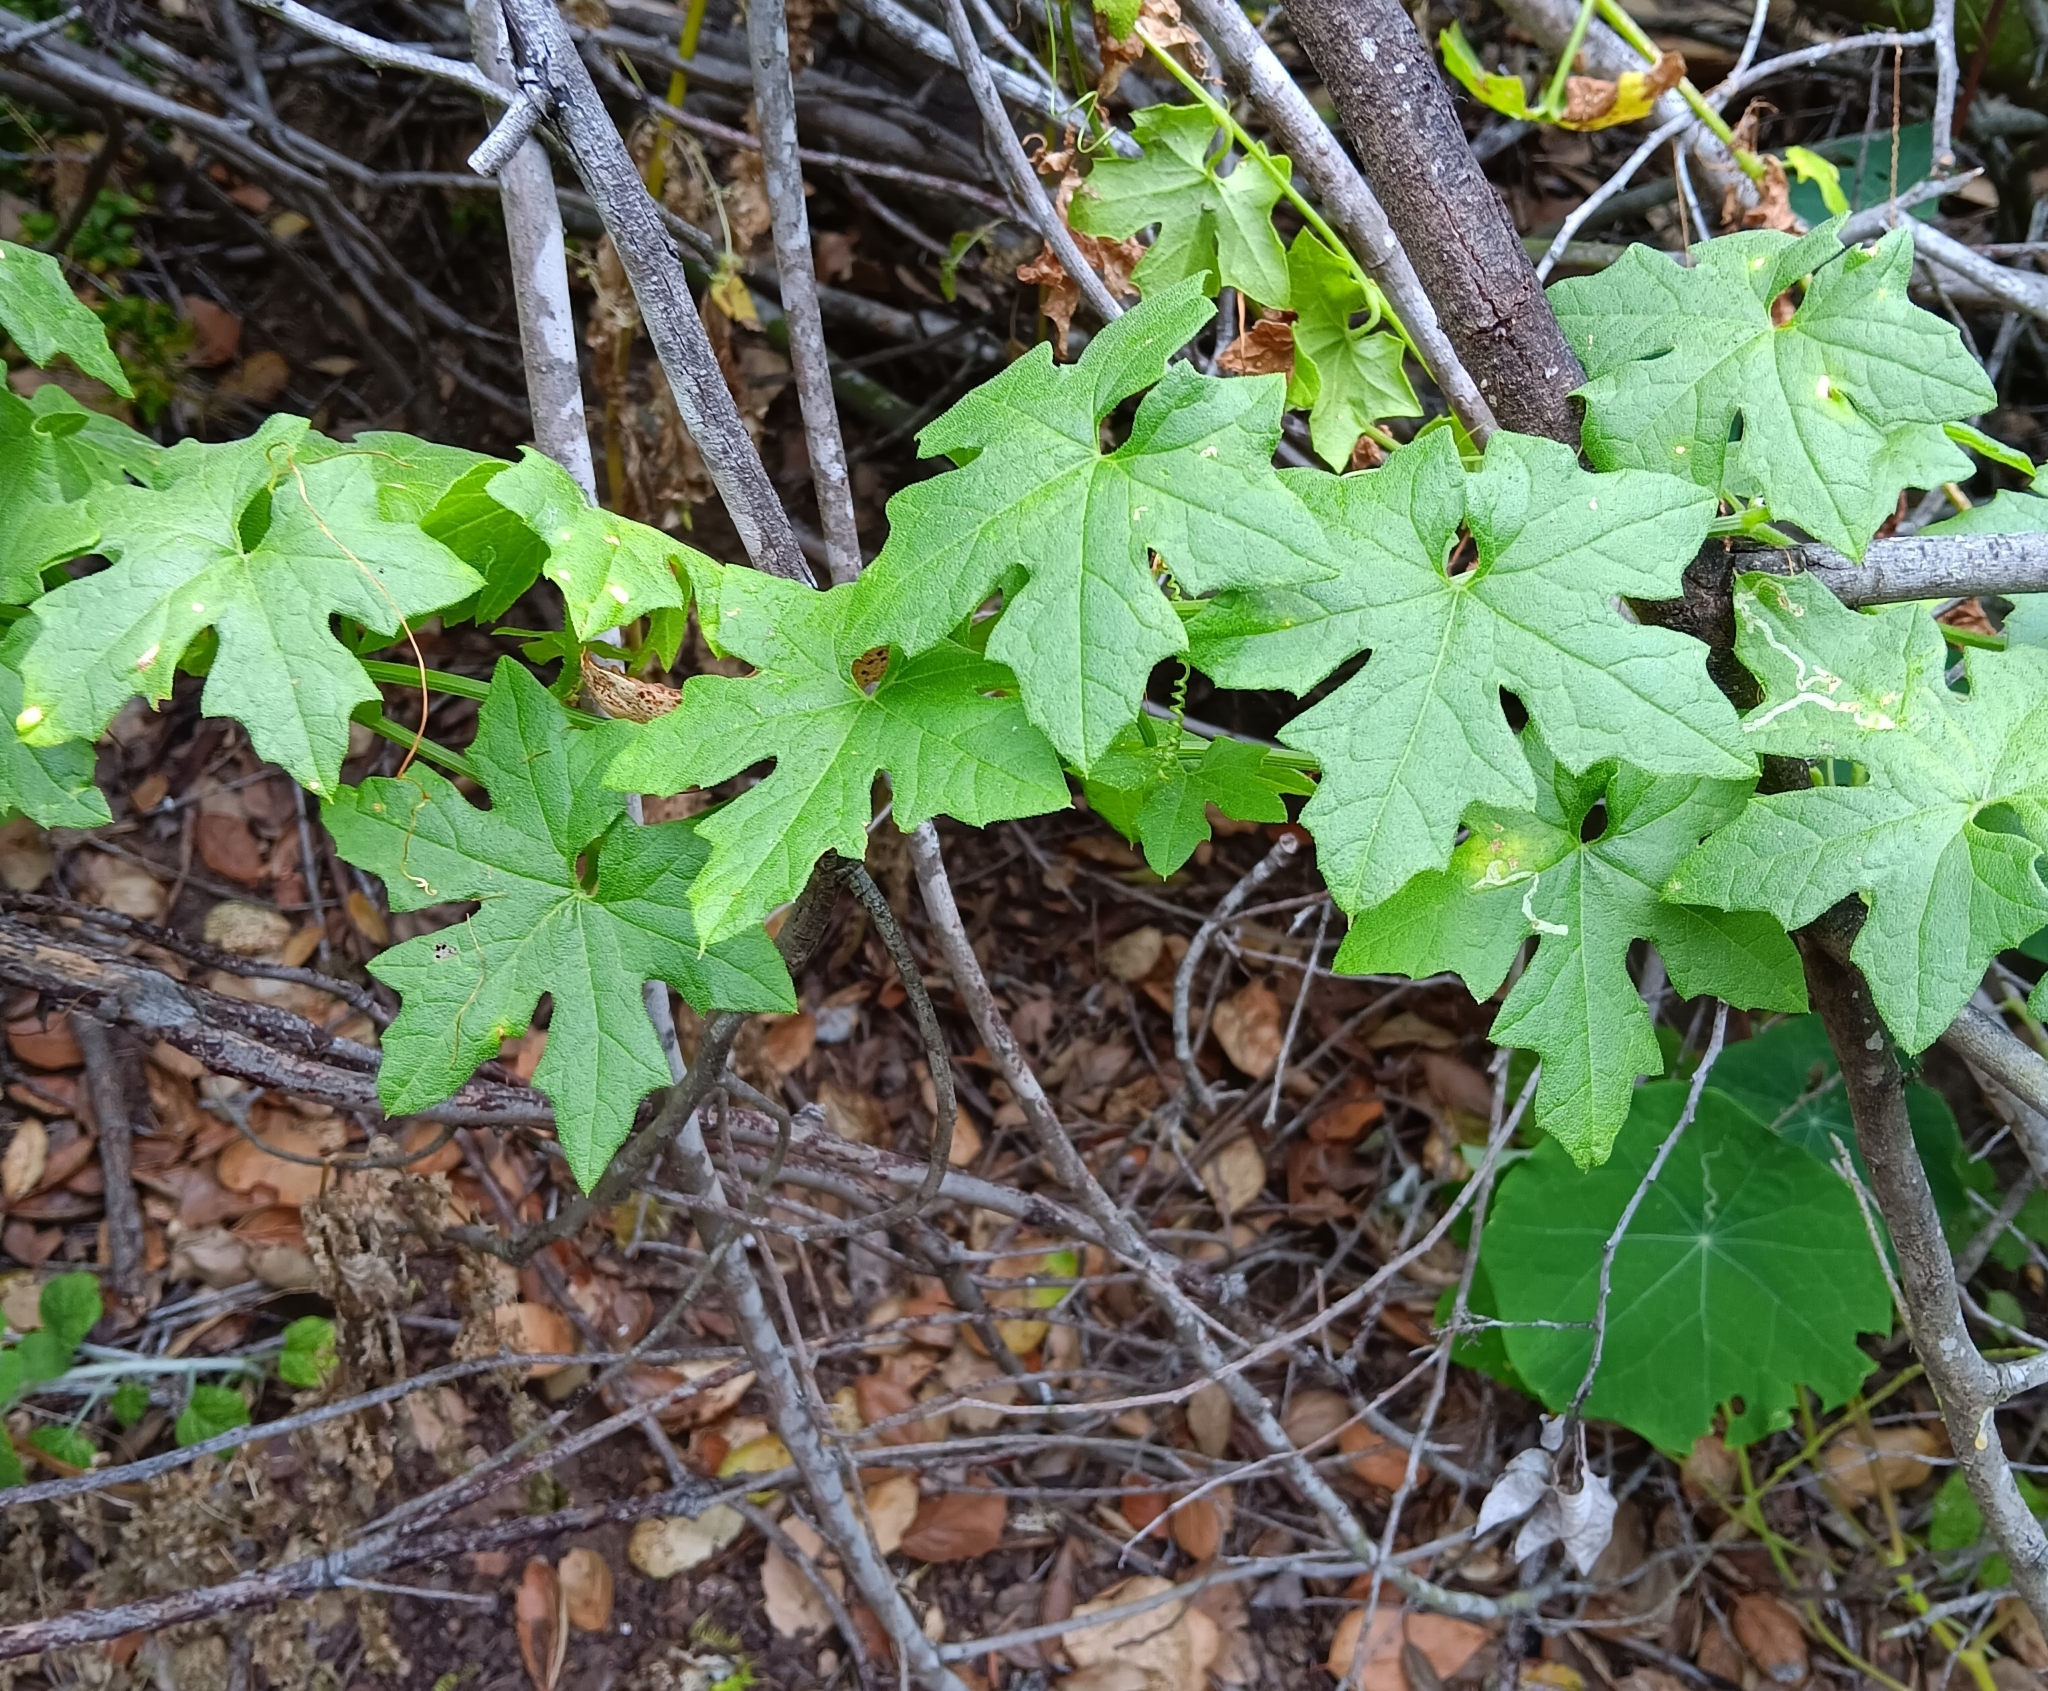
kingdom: Plantae
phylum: Tracheophyta
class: Magnoliopsida
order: Cucurbitales
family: Cucurbitaceae
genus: Marah
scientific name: Marah macrocarpa
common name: Cucamonga manroot
